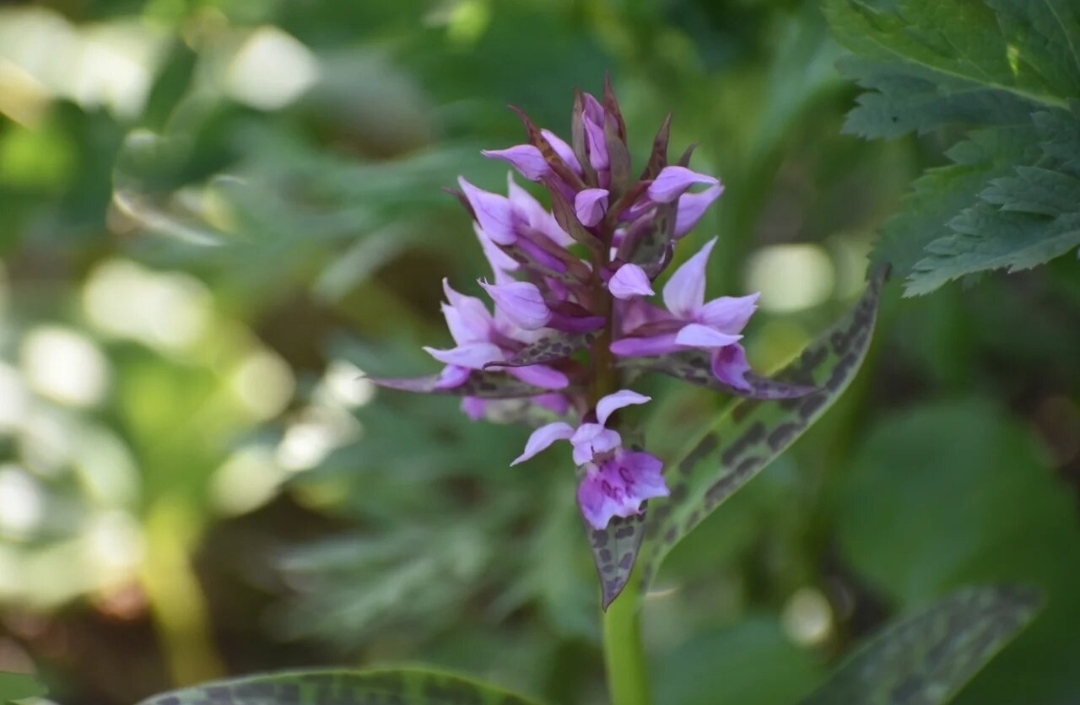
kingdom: Plantae
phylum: Tracheophyta
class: Liliopsida
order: Asparagales
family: Orchidaceae
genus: Dactylorhiza
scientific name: Dactylorhiza aristata
